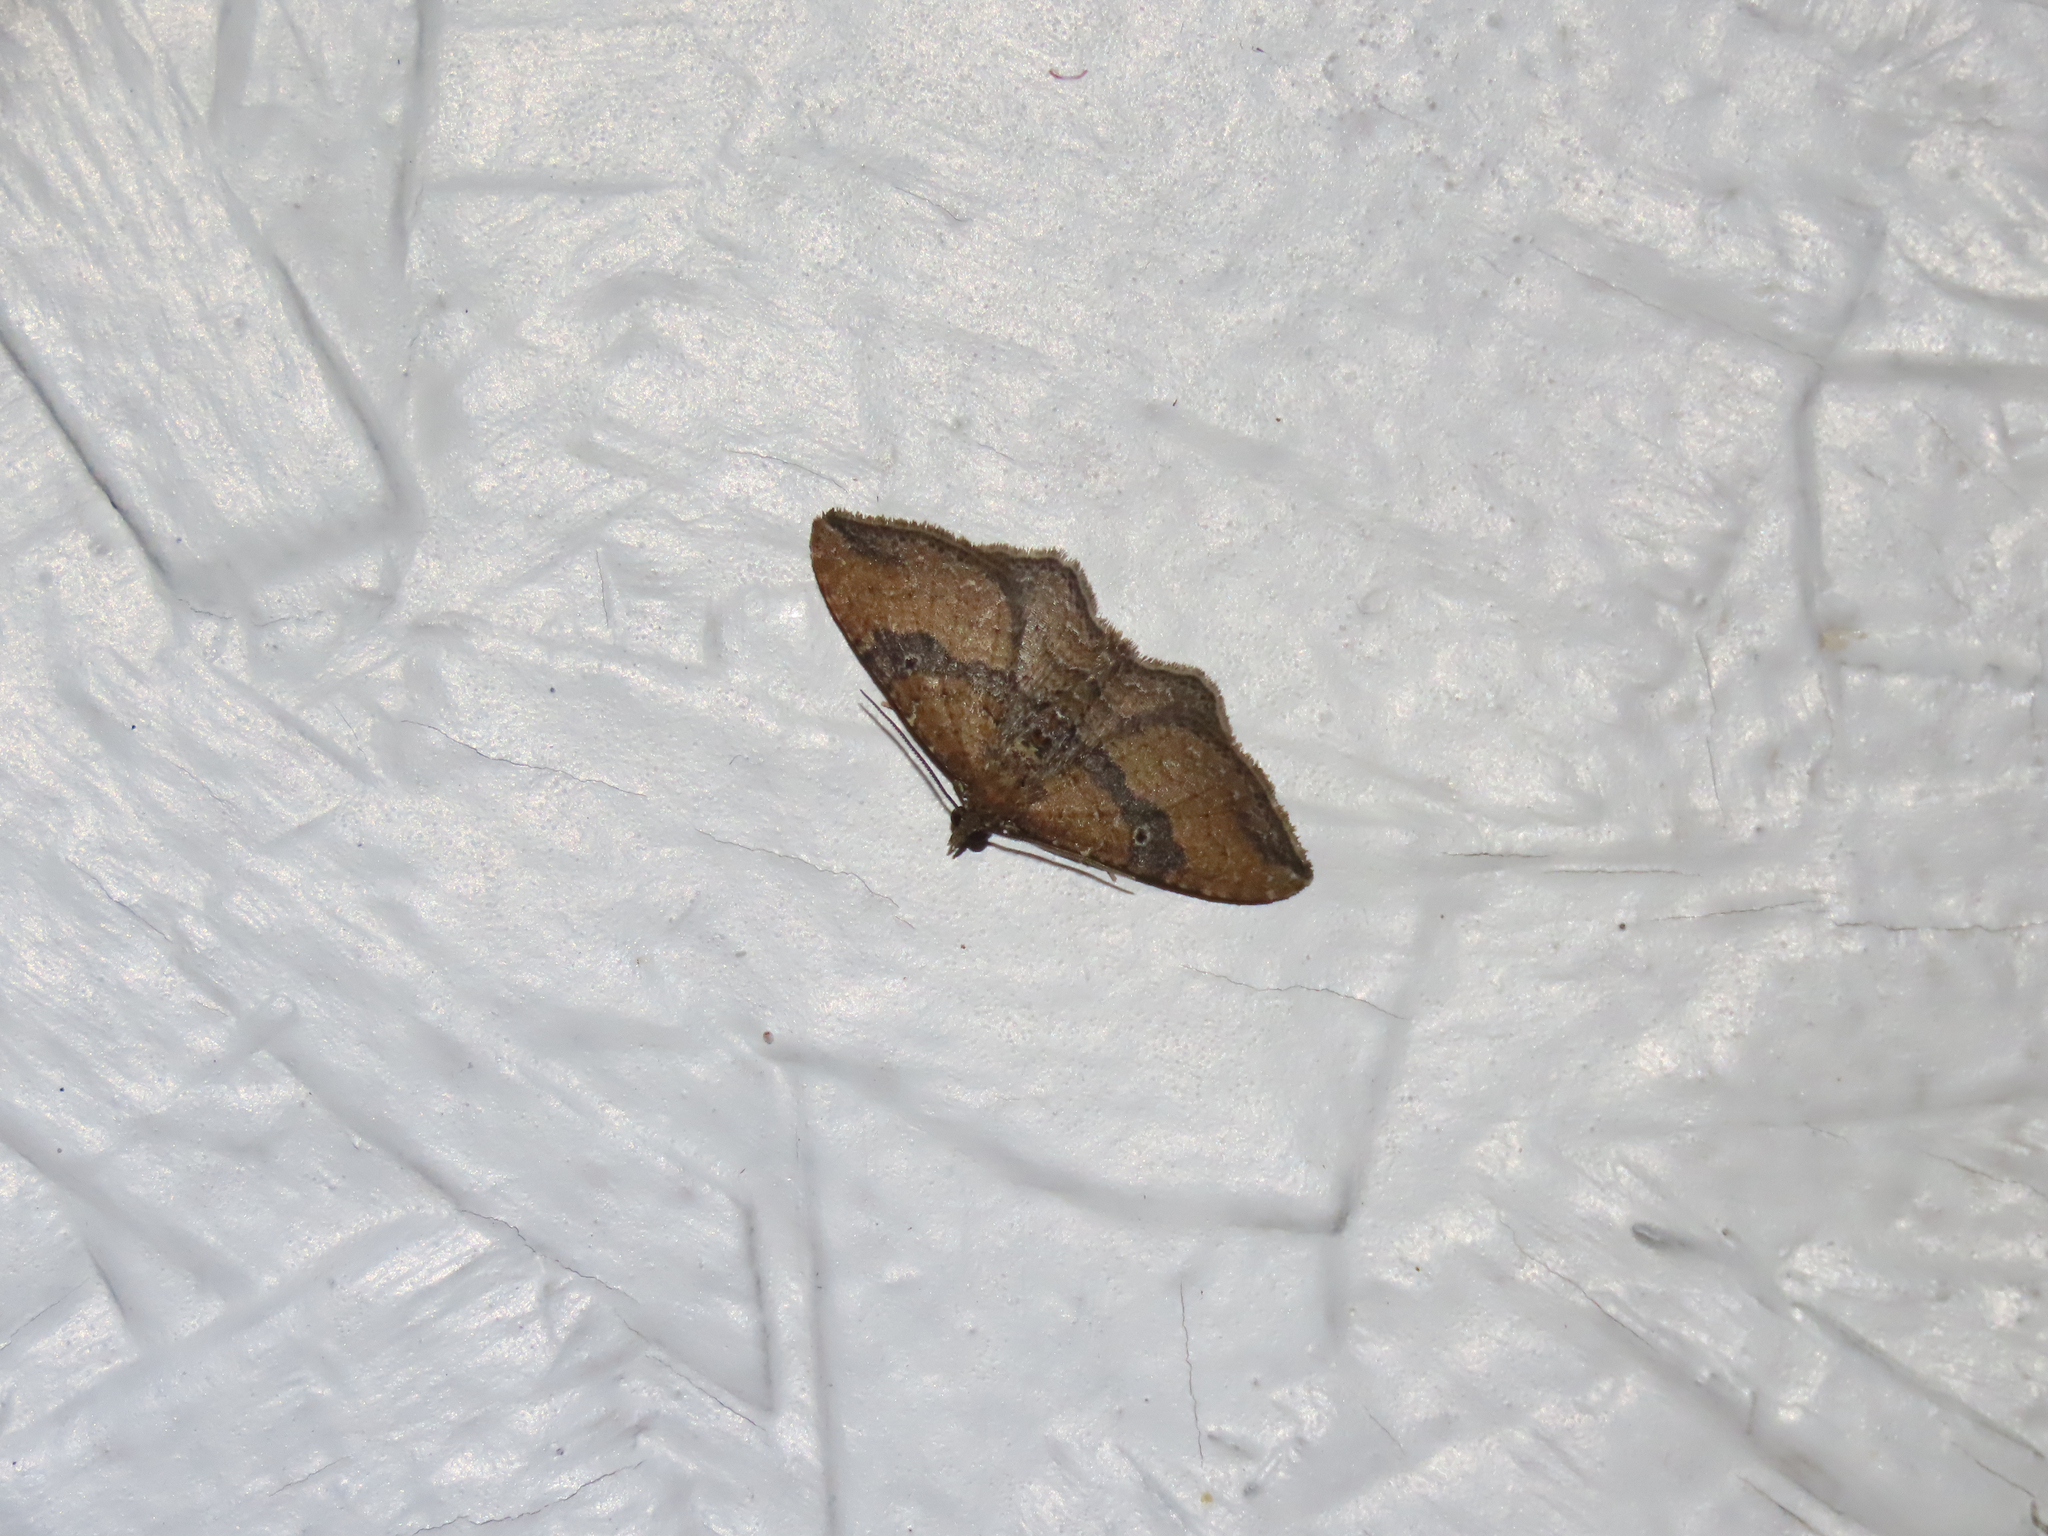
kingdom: Animalia
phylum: Arthropoda
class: Insecta
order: Lepidoptera
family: Geometridae
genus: Orthonama
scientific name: Orthonama obstipata
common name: The gem
